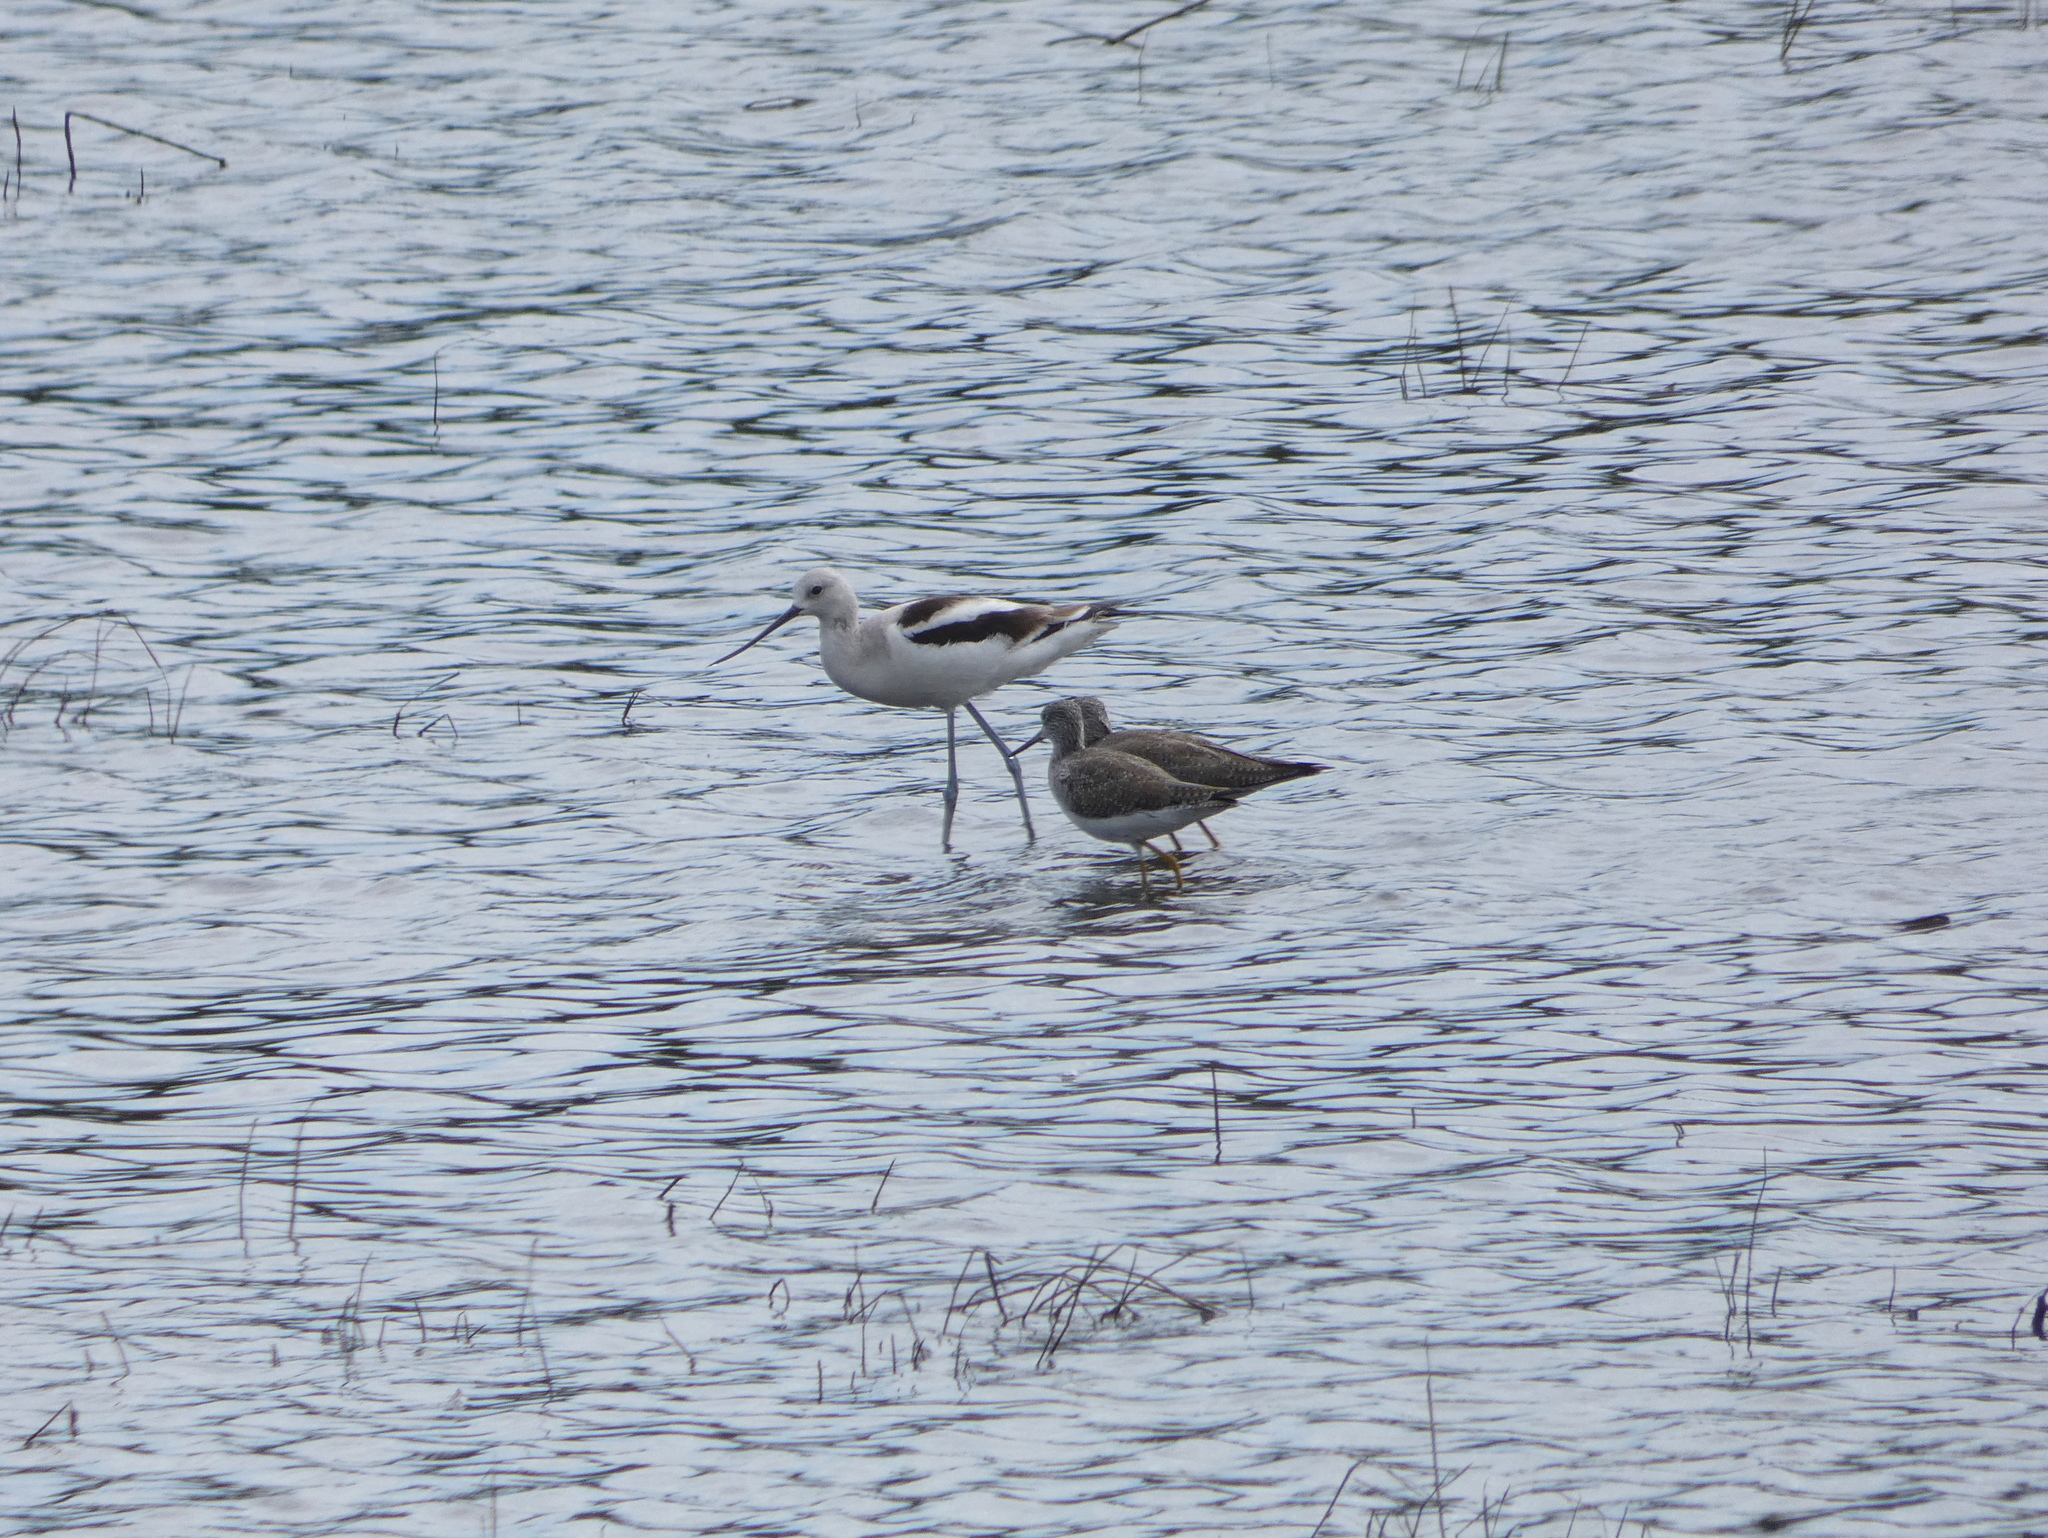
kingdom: Animalia
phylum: Chordata
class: Aves
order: Charadriiformes
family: Recurvirostridae
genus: Recurvirostra
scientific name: Recurvirostra americana
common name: American avocet
